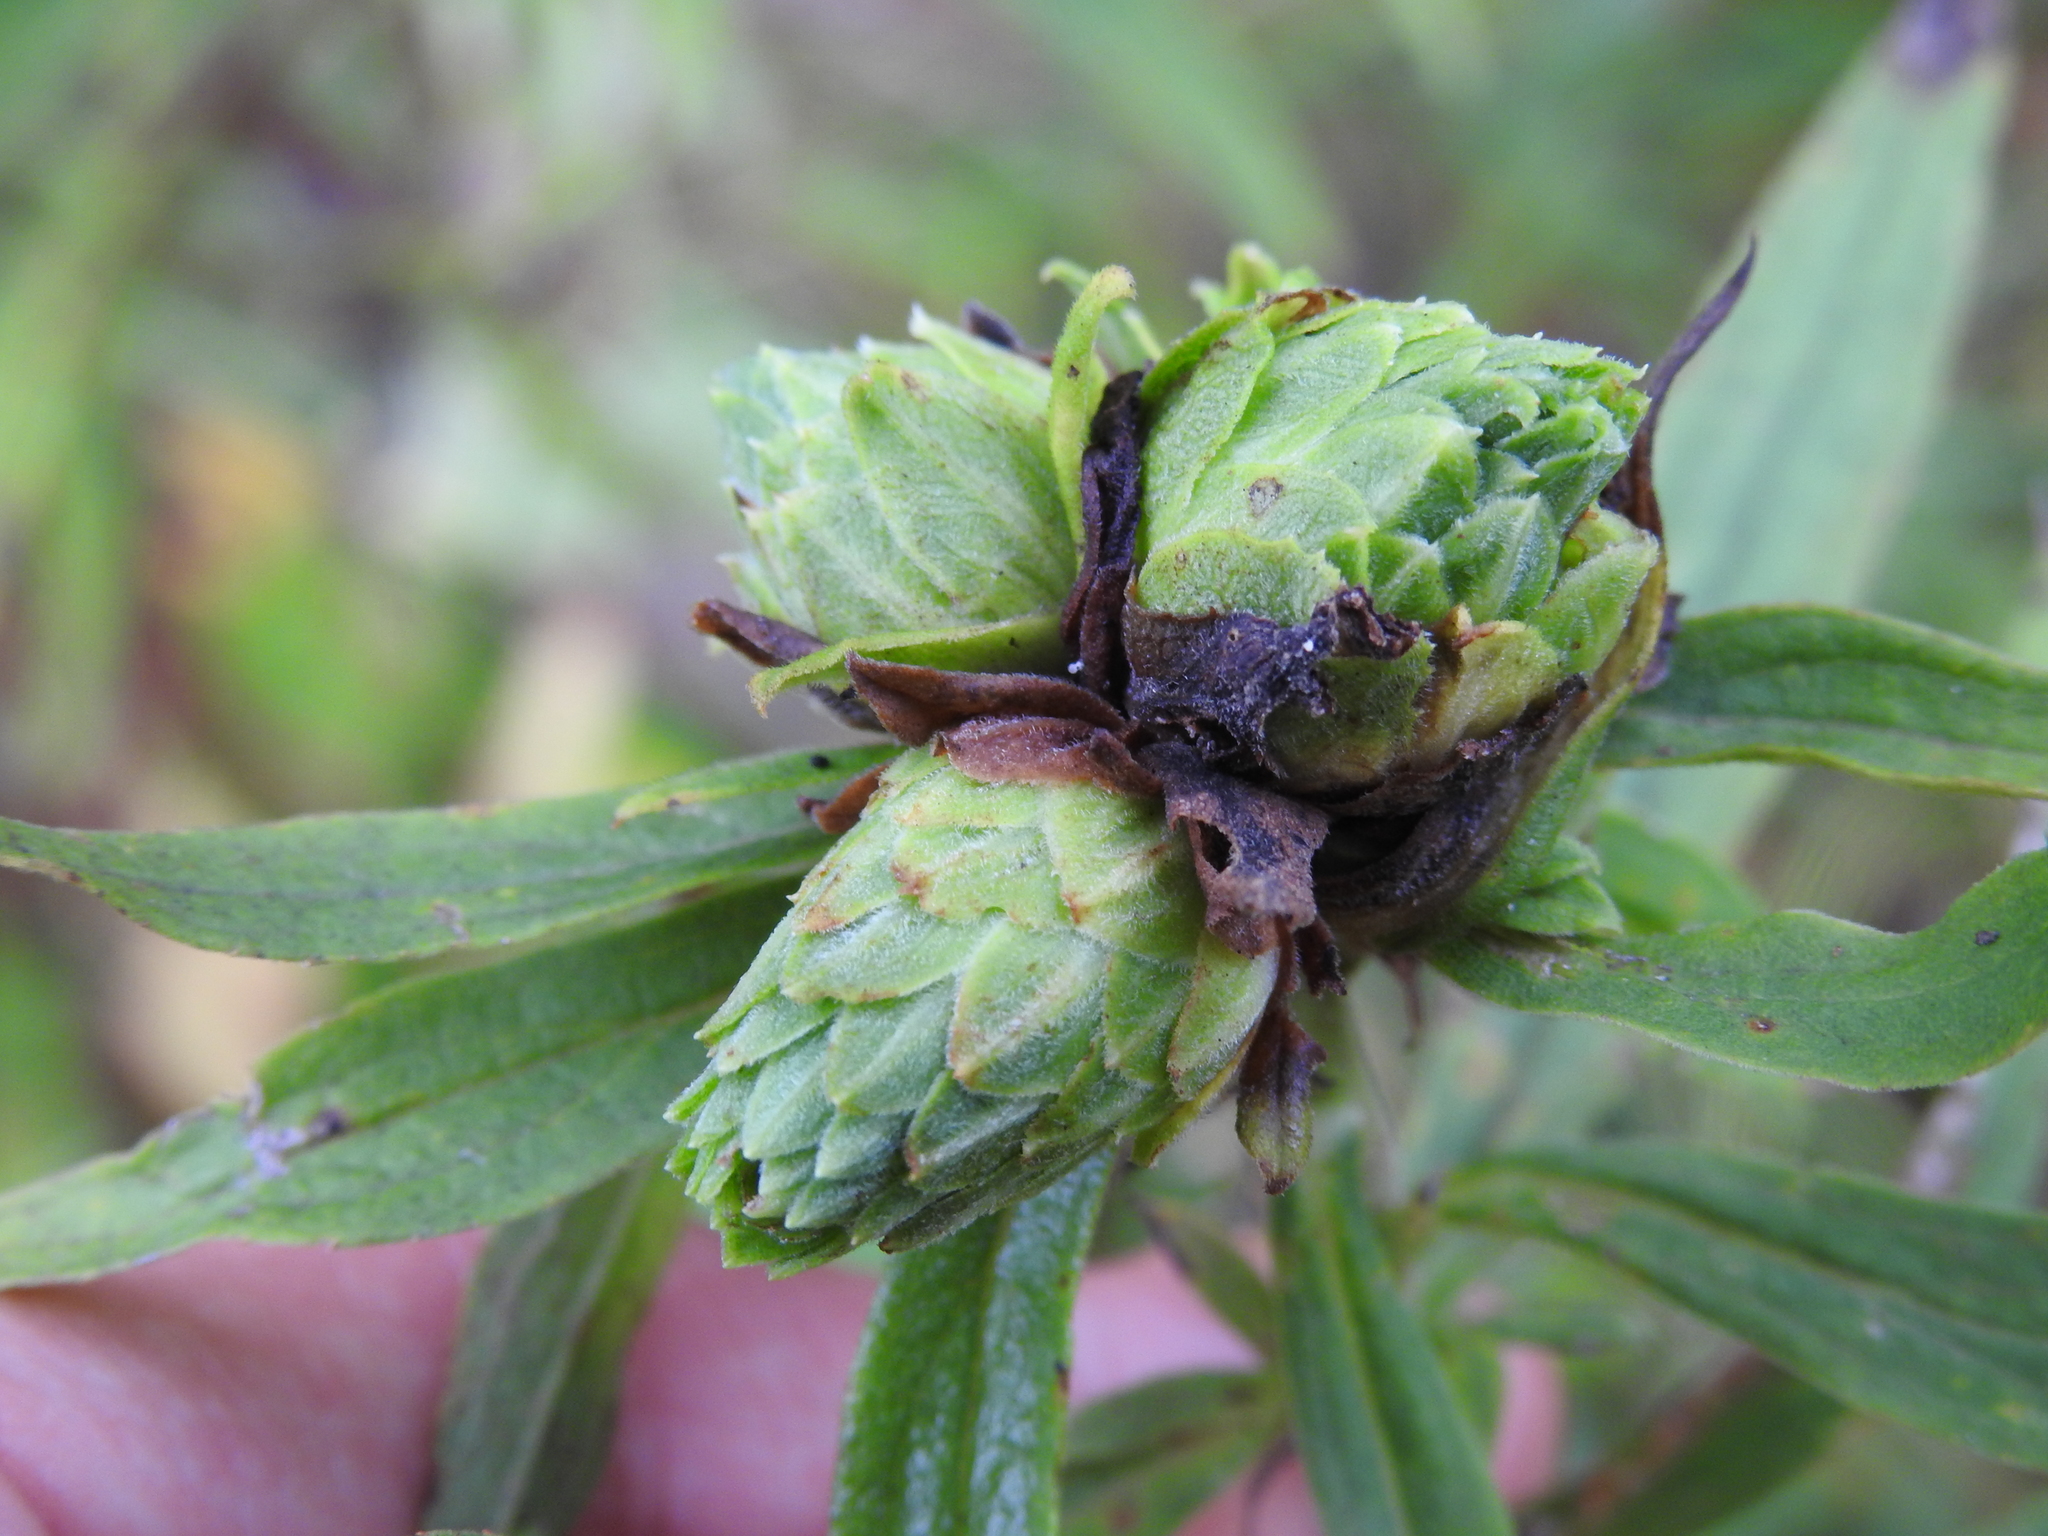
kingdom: Animalia
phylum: Arthropoda
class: Insecta
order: Diptera
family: Tephritidae
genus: Procecidochares
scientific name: Procecidochares atra
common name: Goldenrod brussels sprout gall fly
